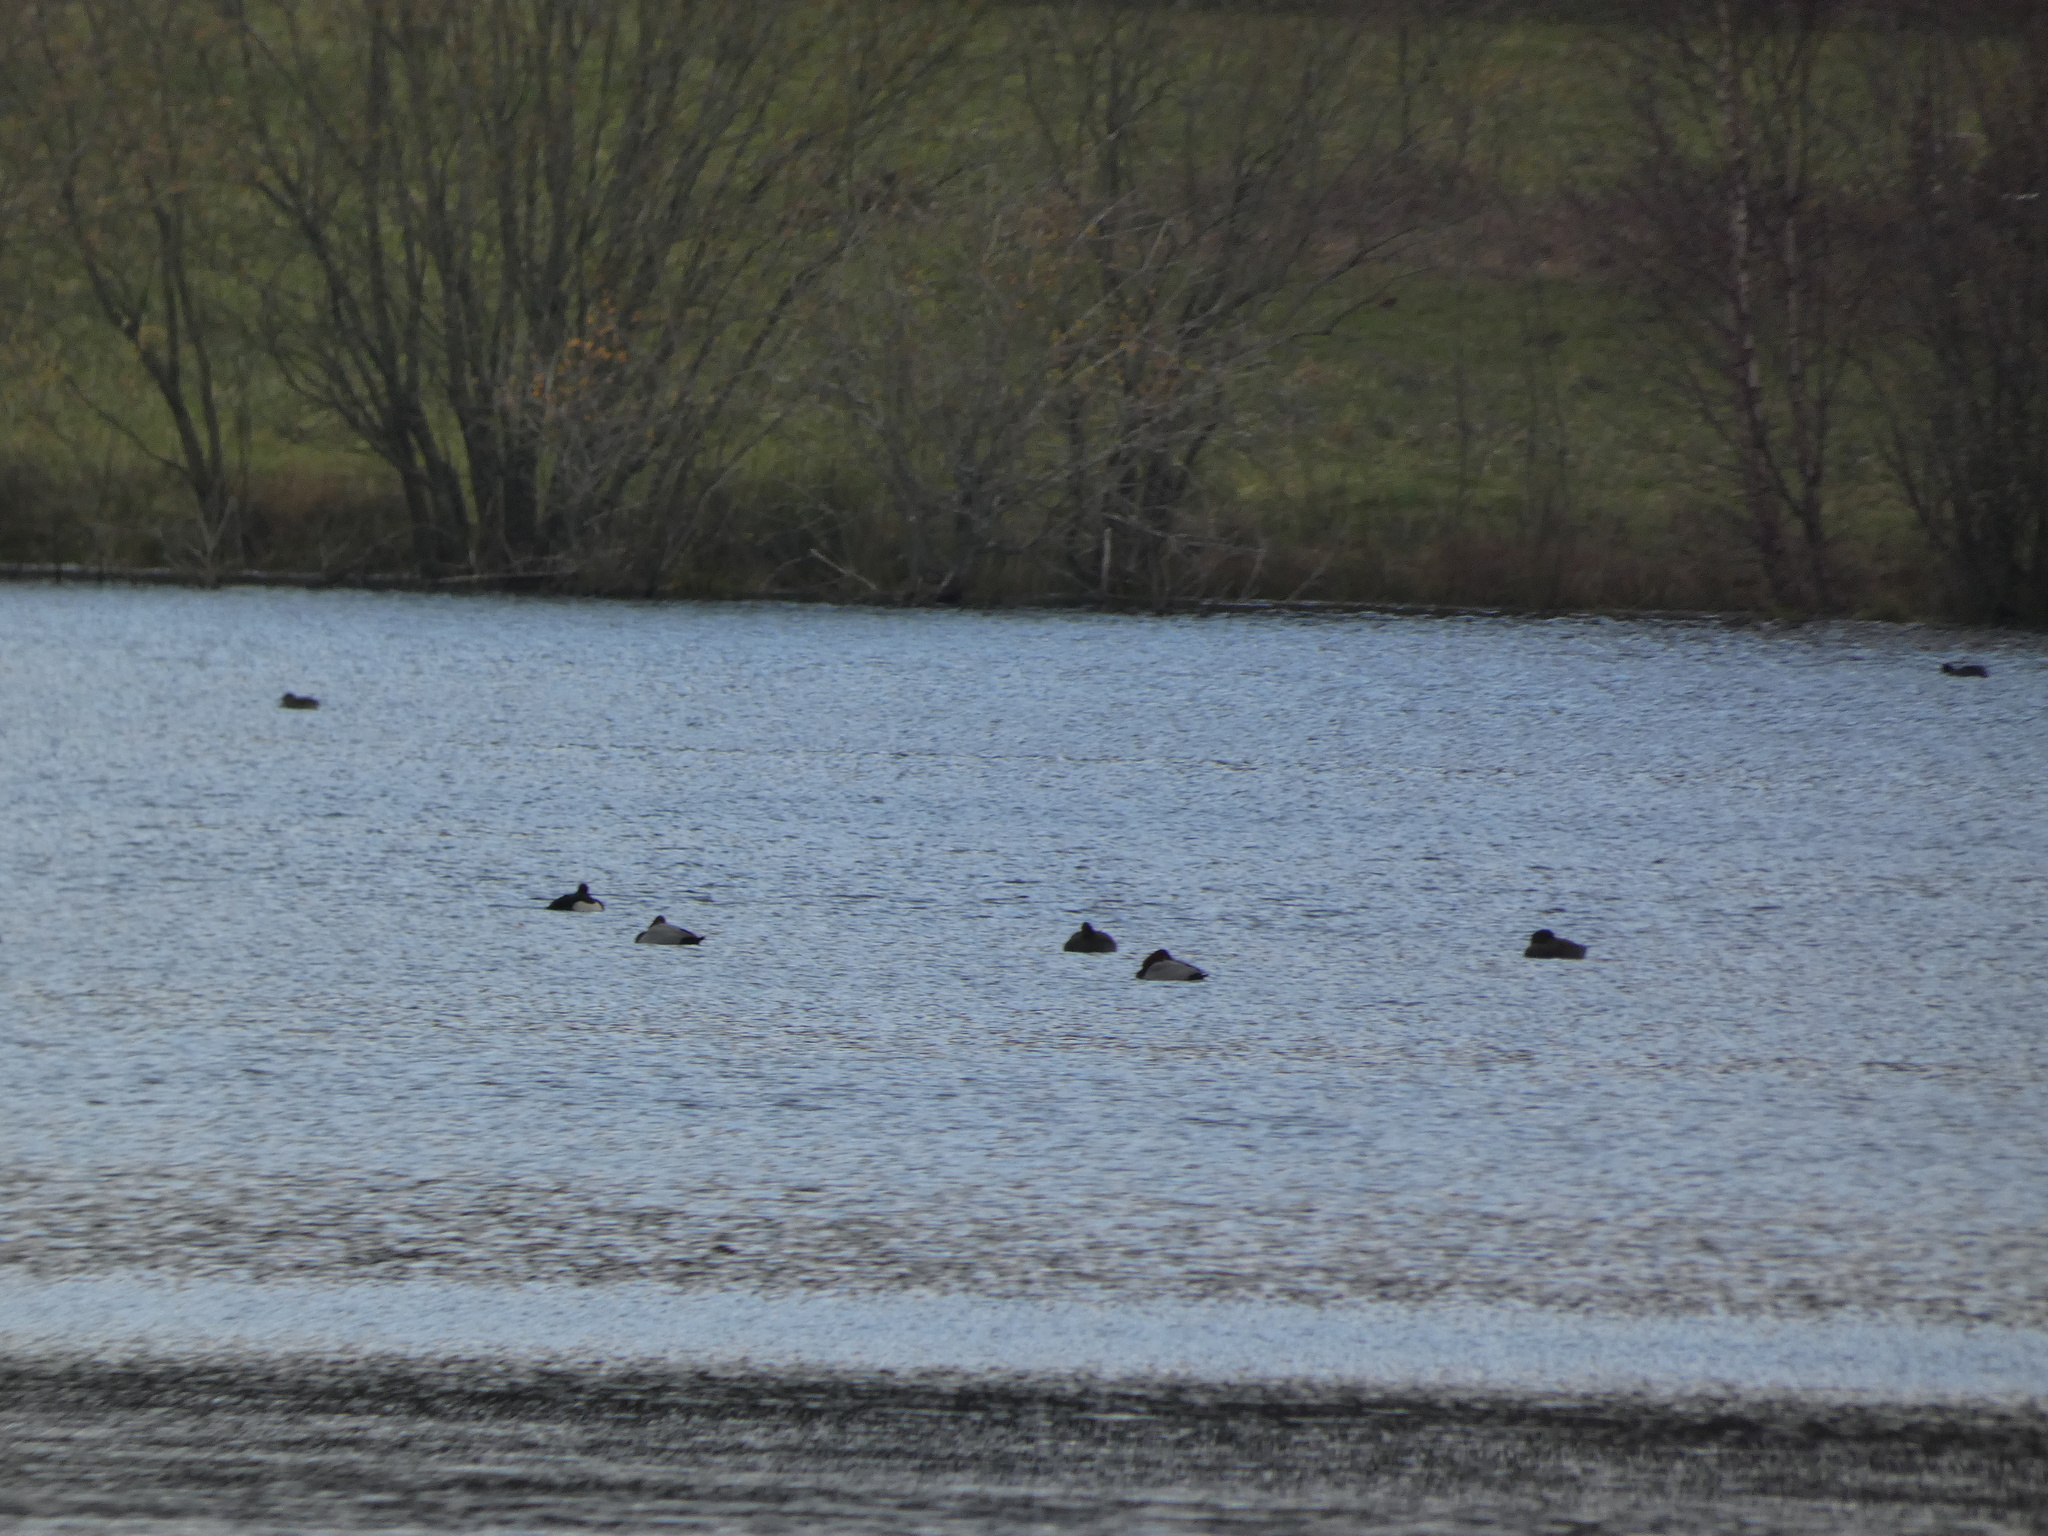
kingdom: Animalia
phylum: Chordata
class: Aves
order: Anseriformes
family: Anatidae
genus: Aythya
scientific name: Aythya ferina
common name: Common pochard
